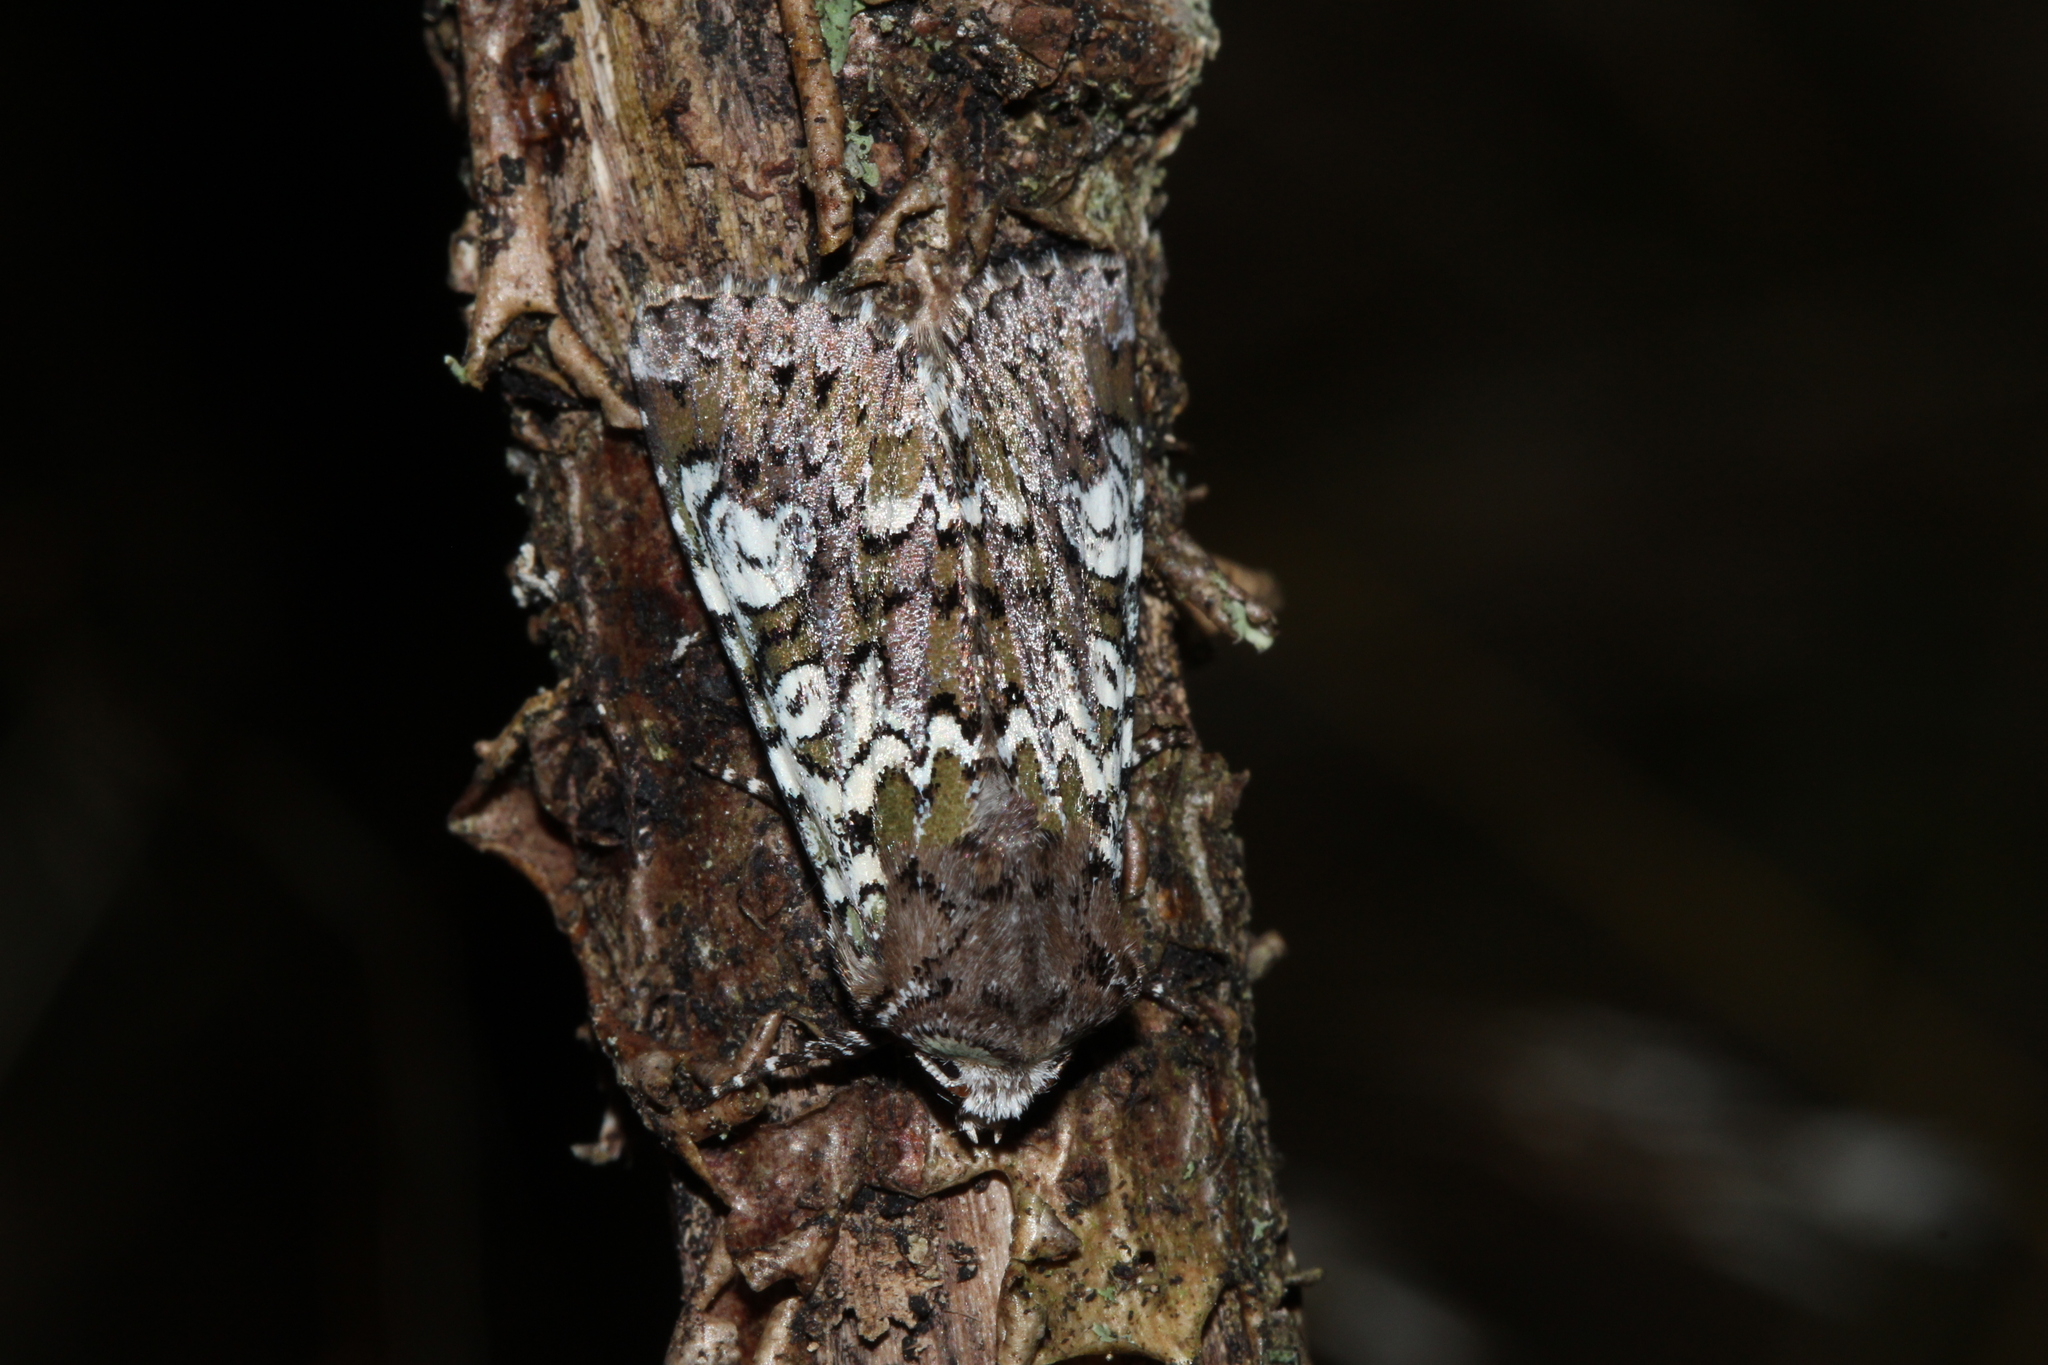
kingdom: Animalia
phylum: Arthropoda
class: Insecta
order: Lepidoptera
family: Noctuidae
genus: Crypsedra
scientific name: Crypsedra gemmea
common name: Cameo
